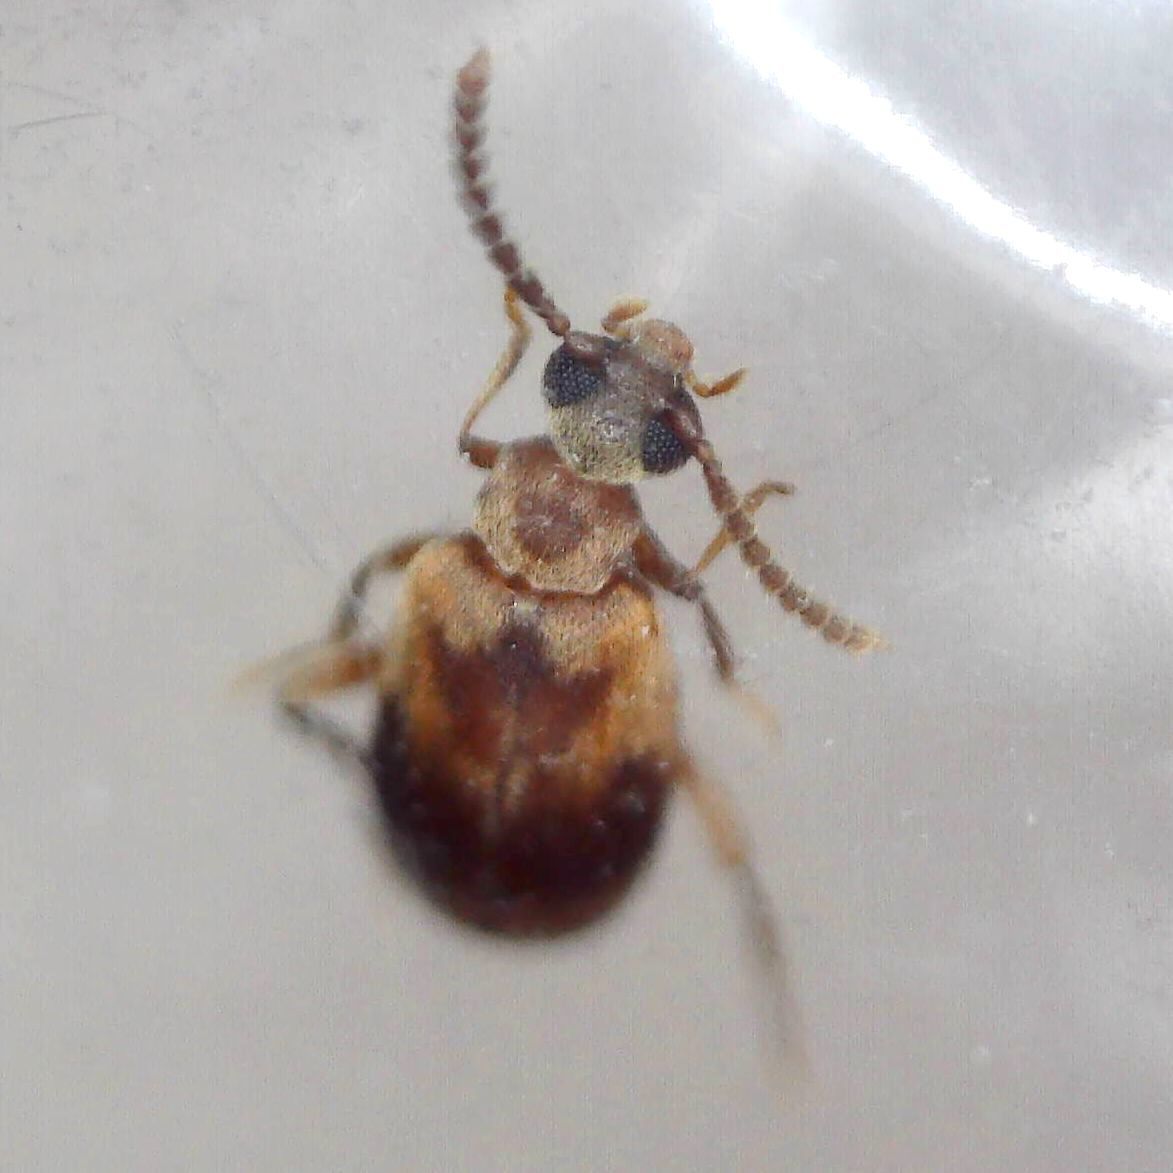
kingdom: Animalia
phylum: Arthropoda
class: Insecta
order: Coleoptera
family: Aderidae
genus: Aderus
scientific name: Aderus populneus
